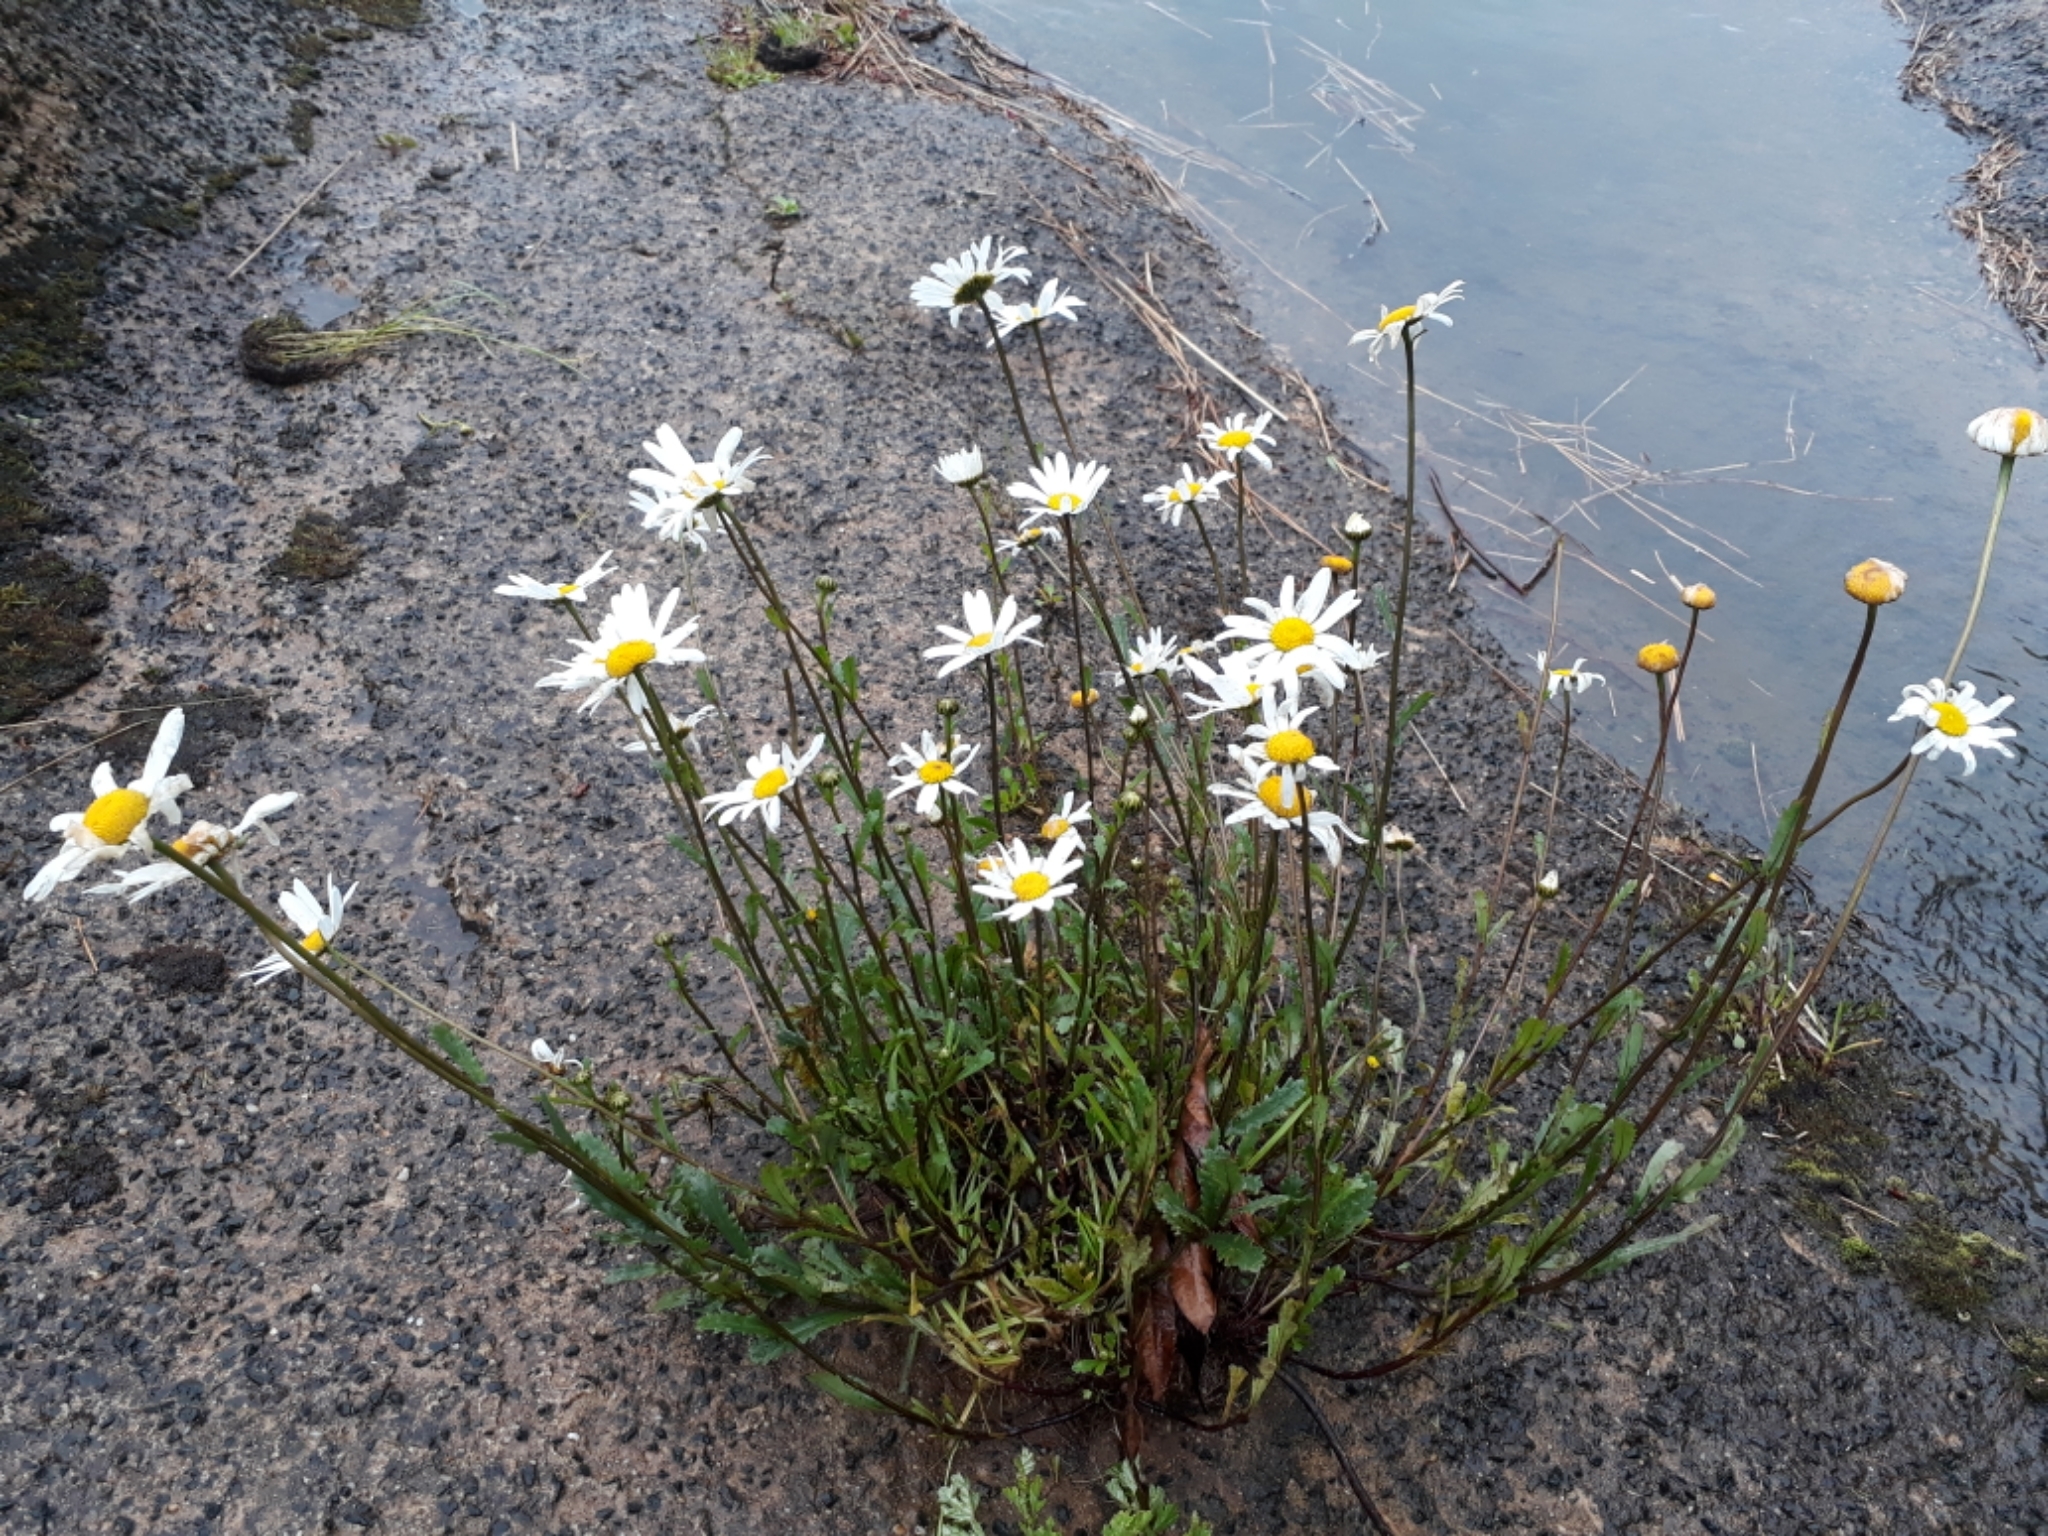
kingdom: Plantae
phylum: Tracheophyta
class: Magnoliopsida
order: Asterales
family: Asteraceae
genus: Leucanthemum
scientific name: Leucanthemum vulgare
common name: Oxeye daisy
